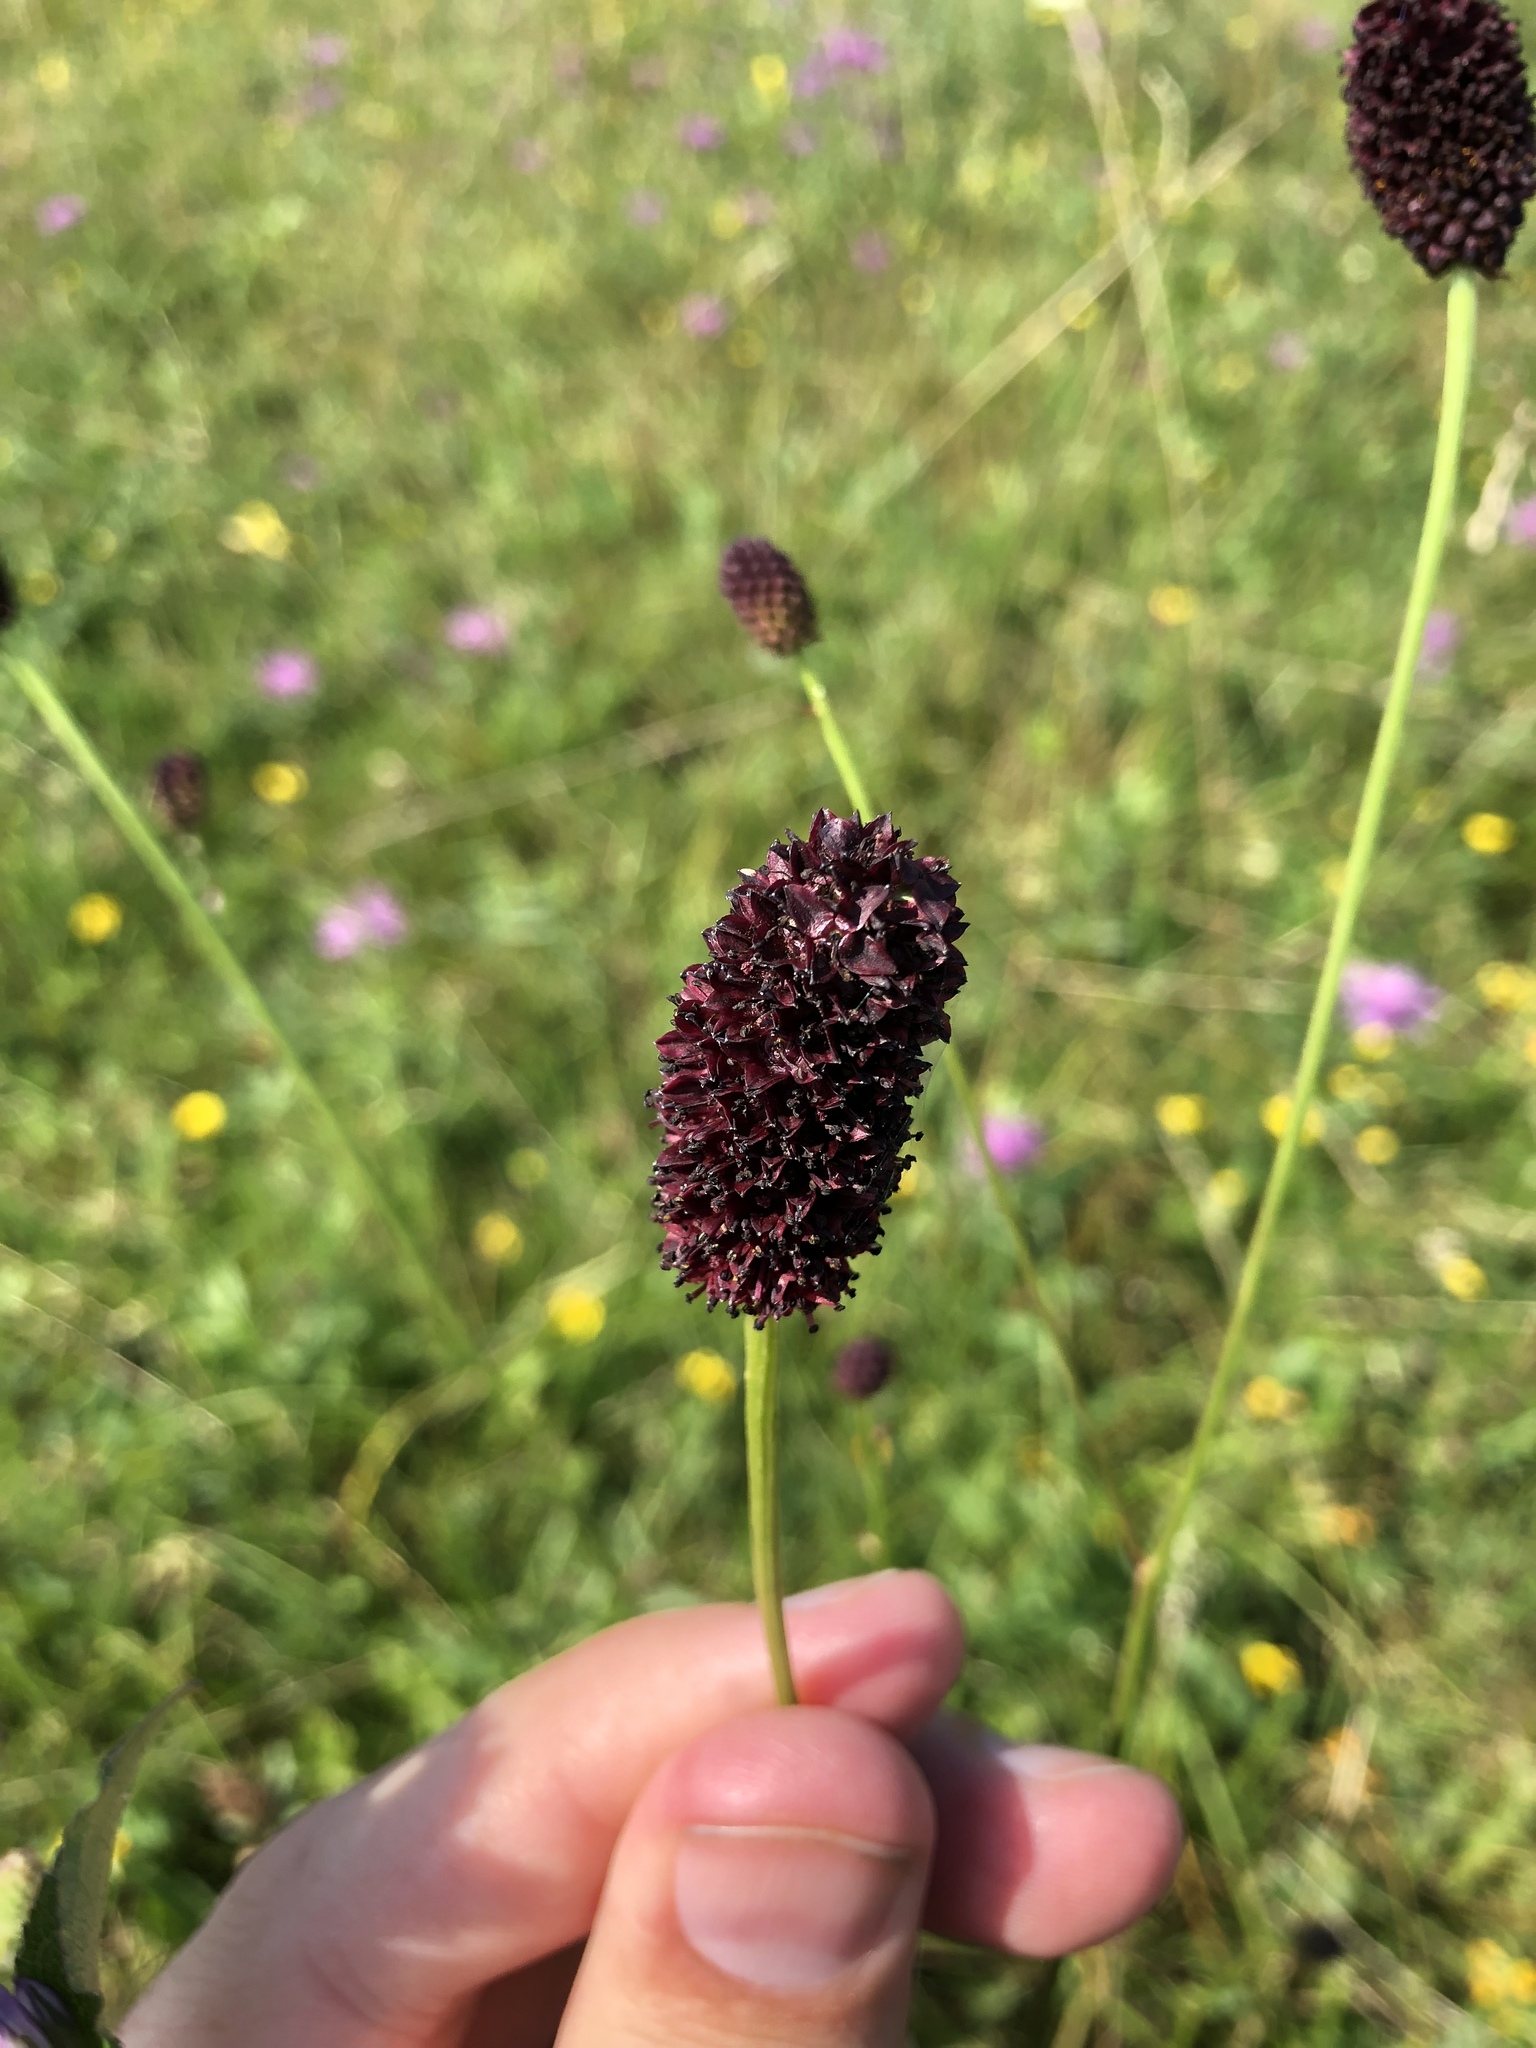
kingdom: Plantae
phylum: Tracheophyta
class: Magnoliopsida
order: Rosales
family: Rosaceae
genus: Sanguisorba
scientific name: Sanguisorba officinalis
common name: Great burnet
